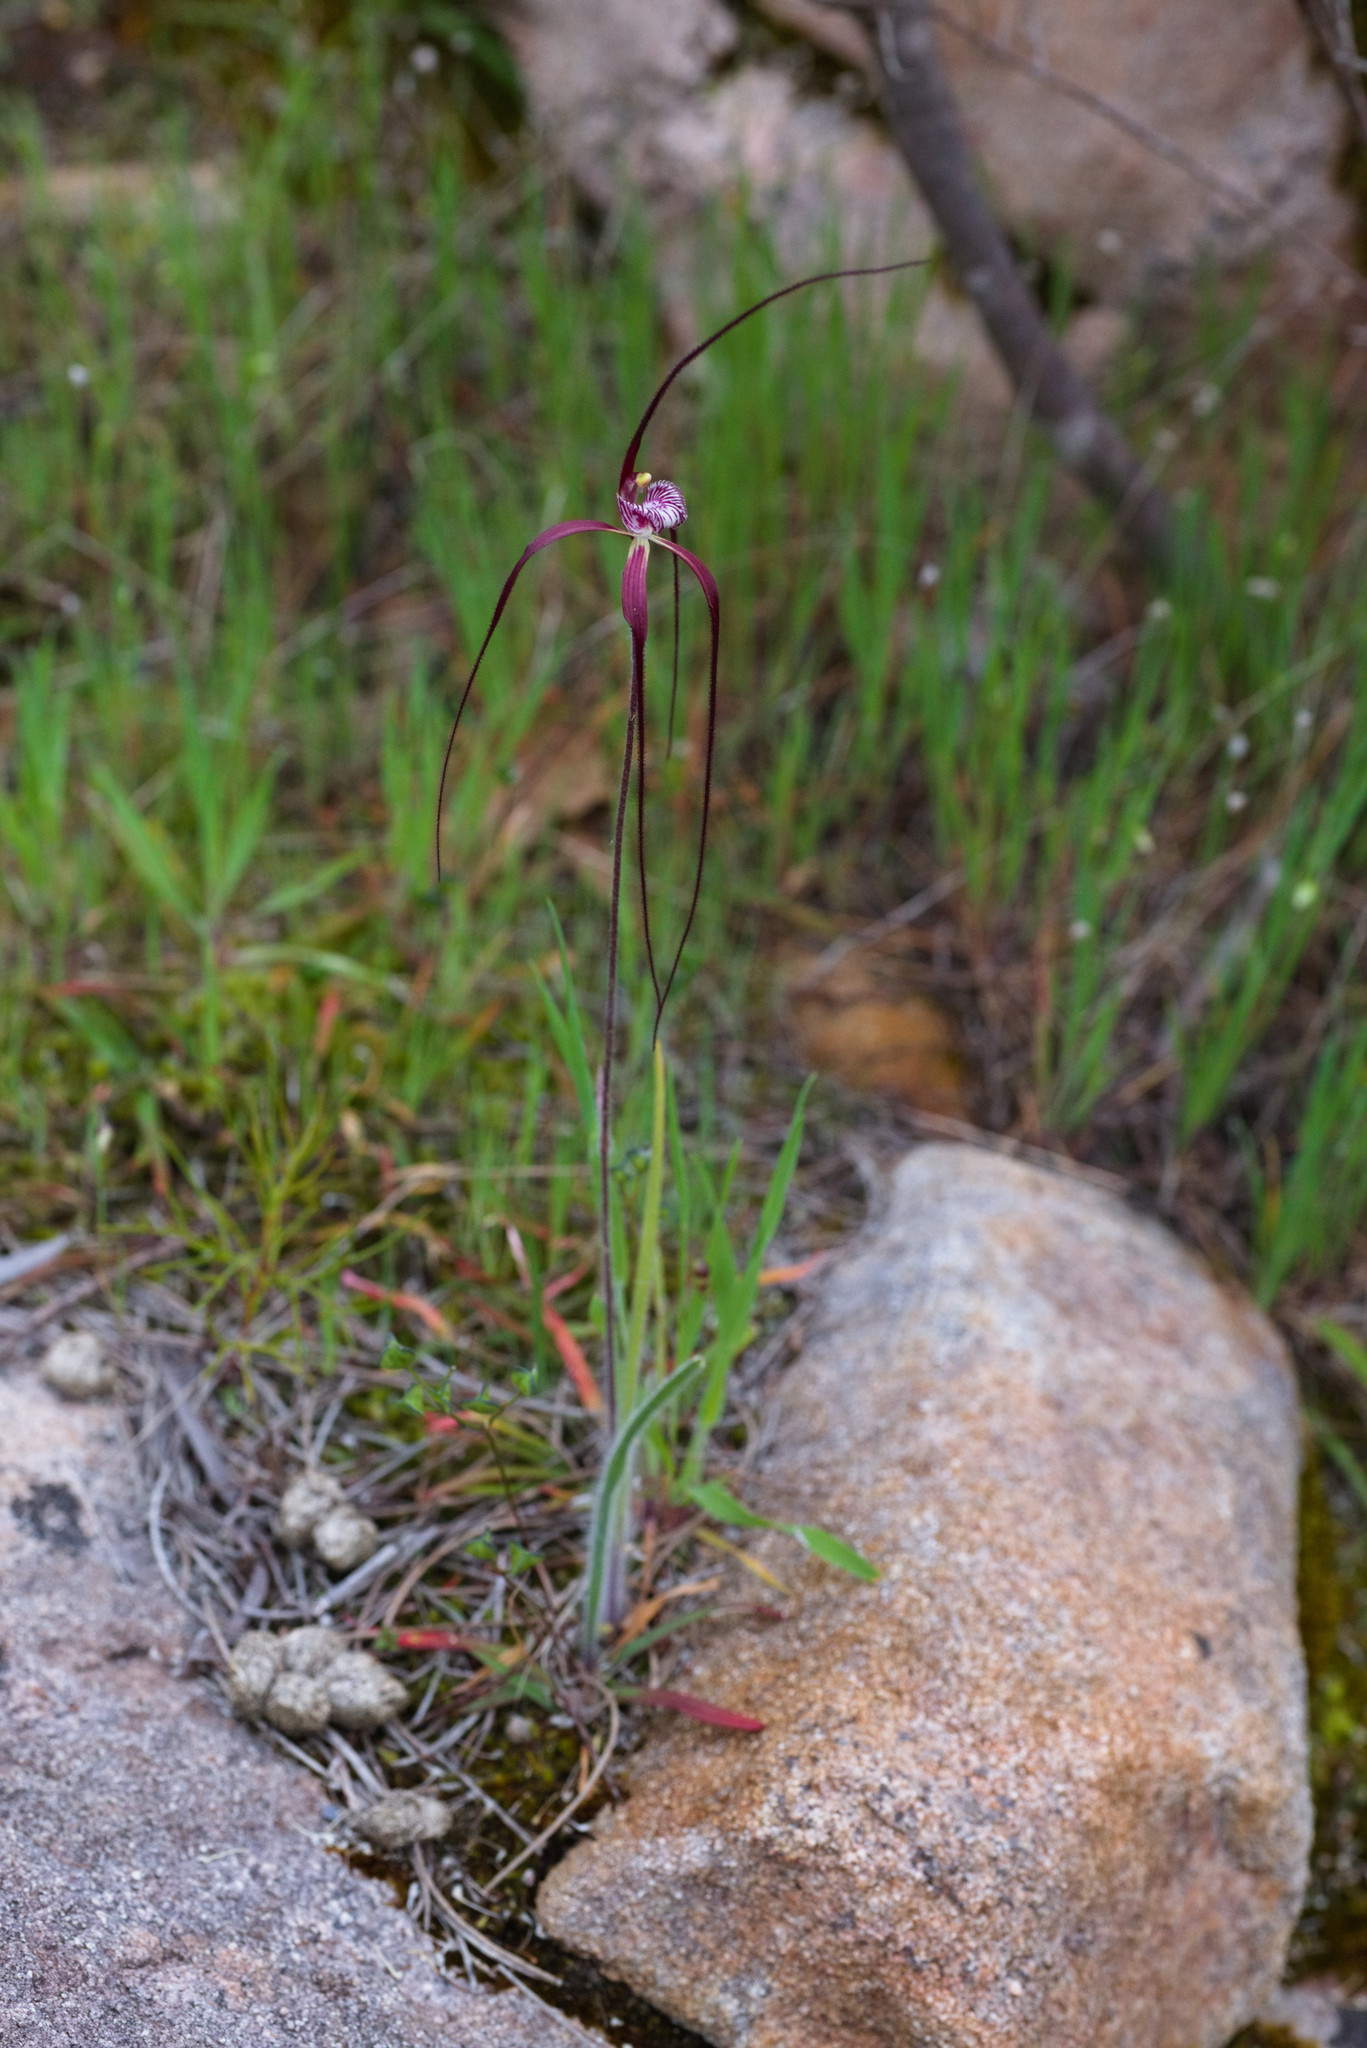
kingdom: Plantae
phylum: Tracheophyta
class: Liliopsida
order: Asparagales
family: Orchidaceae
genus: Caladenia
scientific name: Caladenia chapmanii
